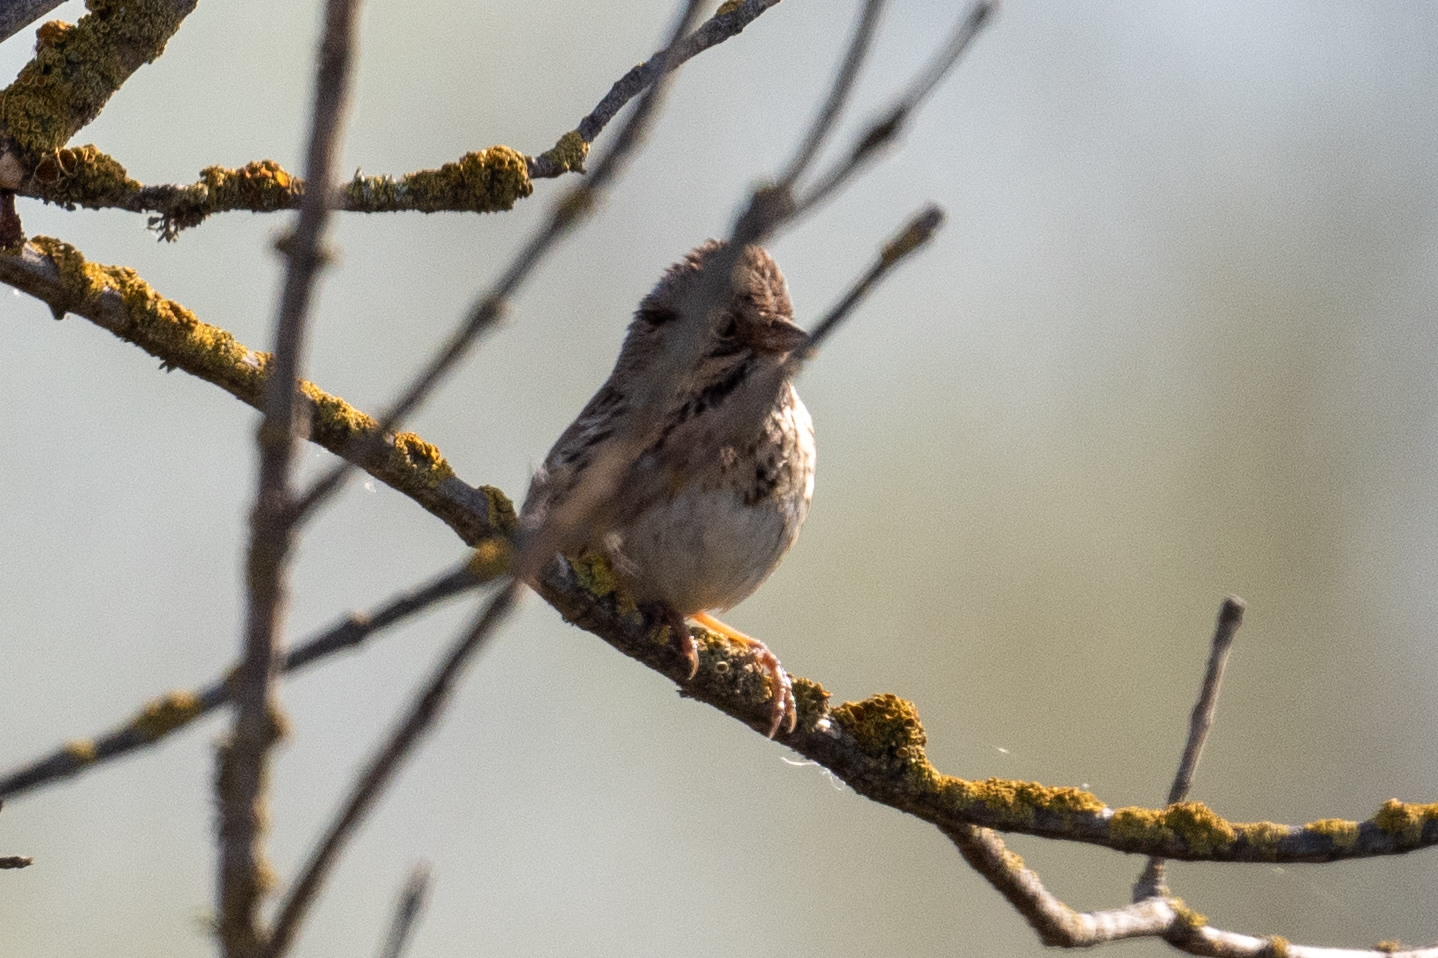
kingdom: Animalia
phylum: Chordata
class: Aves
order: Passeriformes
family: Passerellidae
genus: Melospiza
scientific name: Melospiza lincolnii
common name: Lincoln's sparrow
